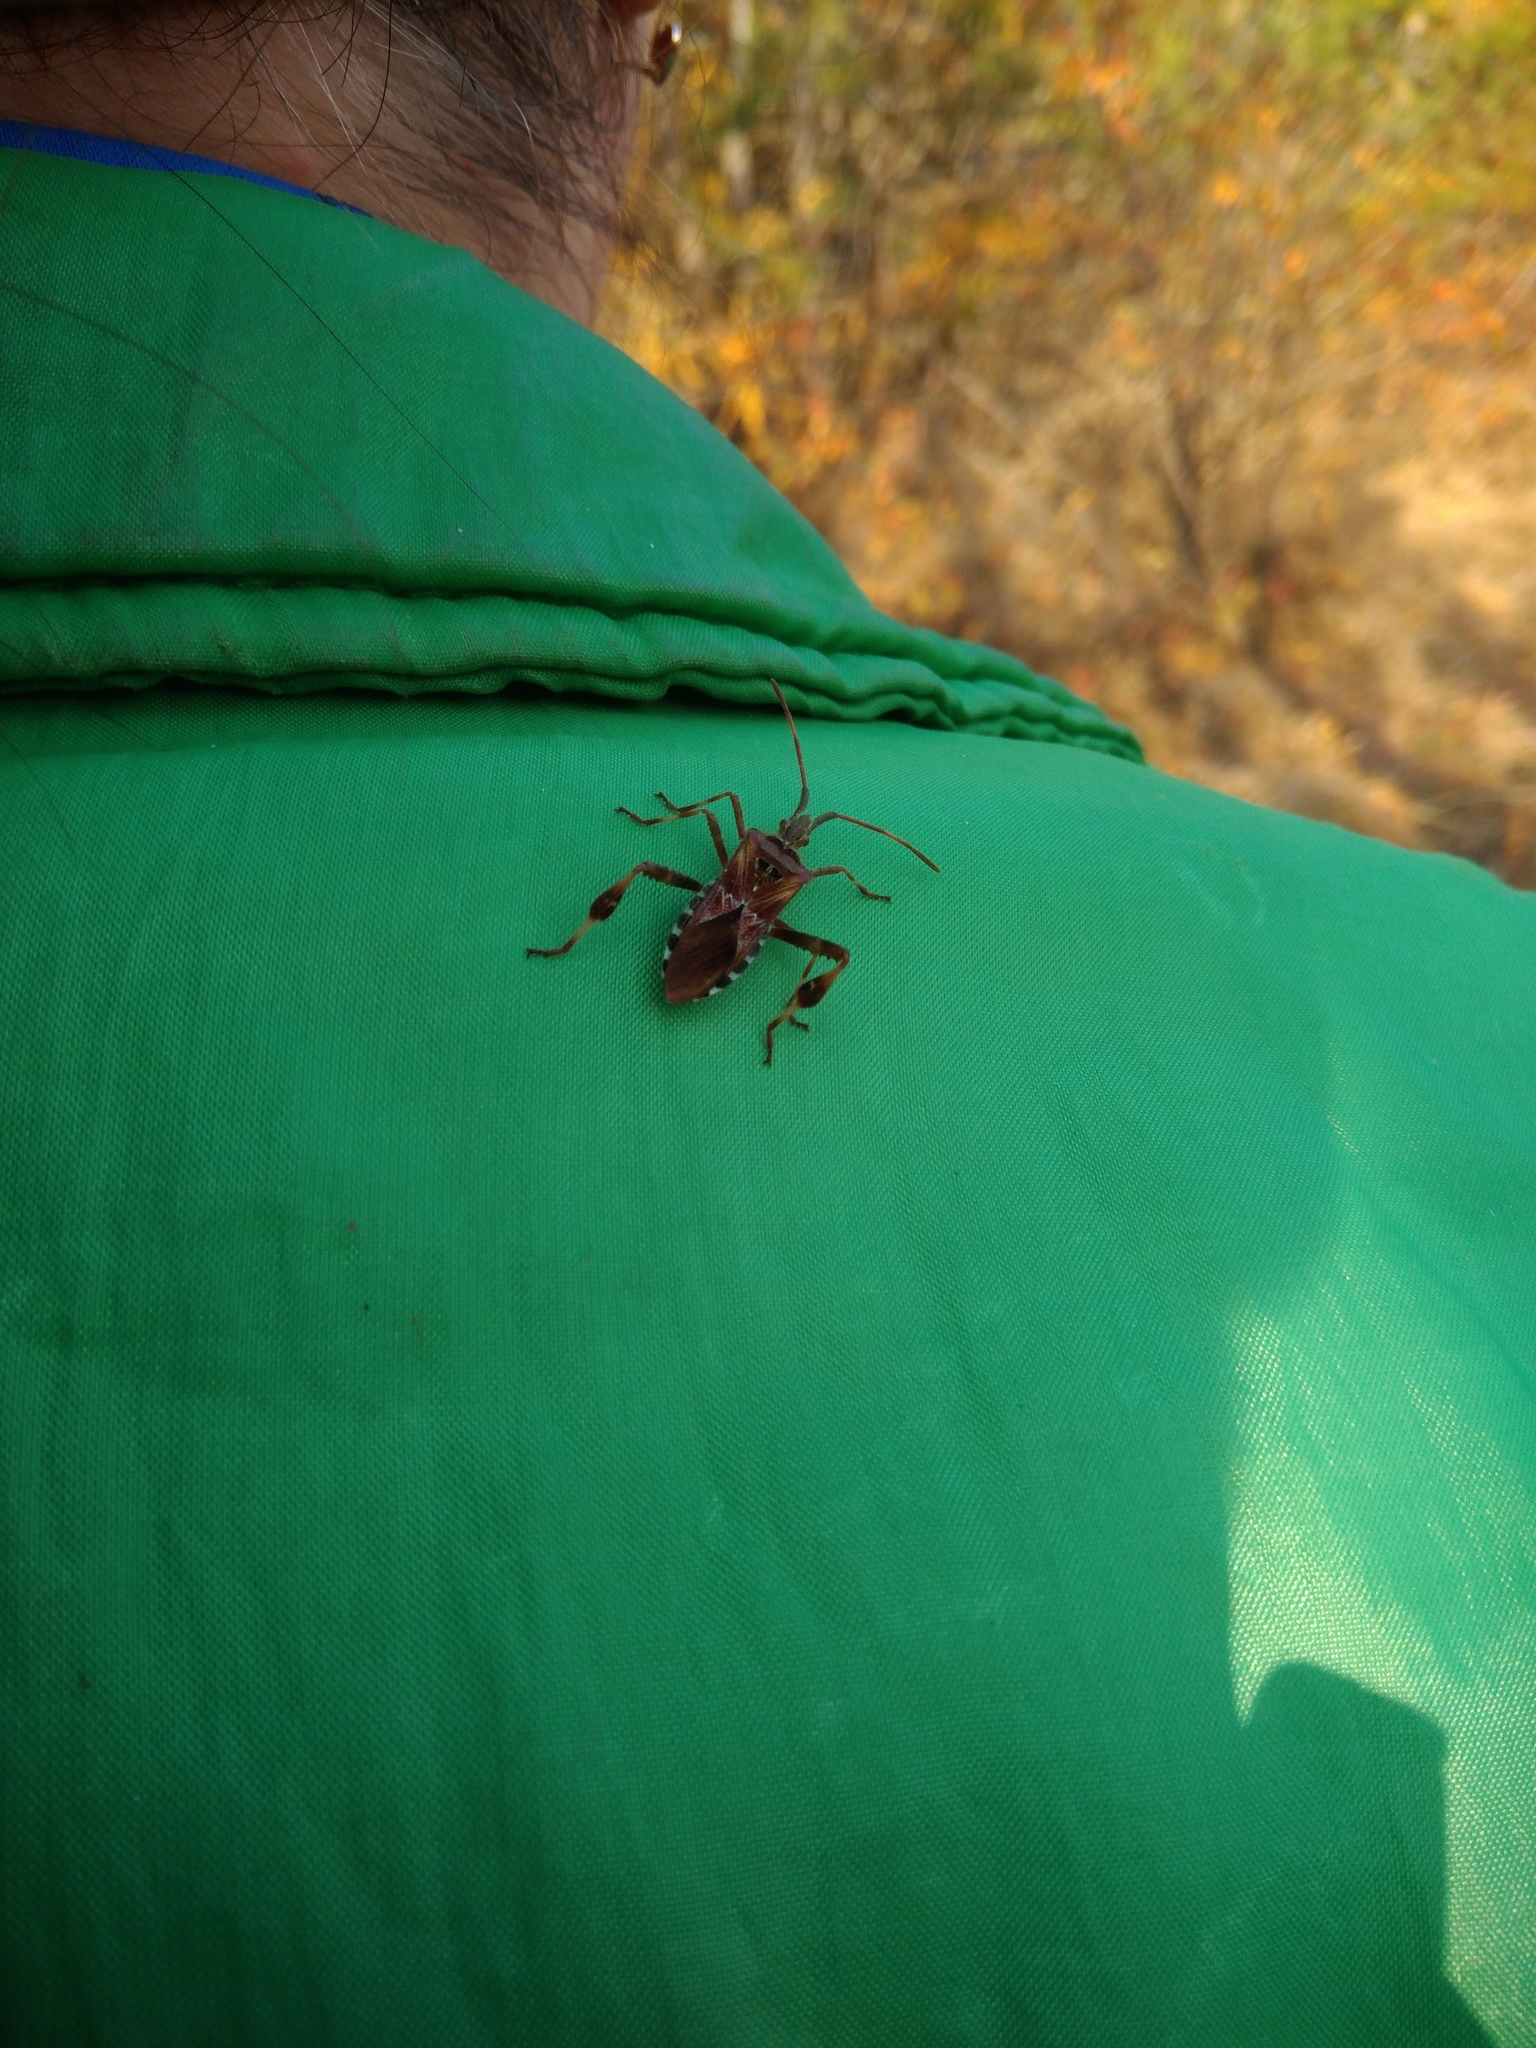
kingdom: Animalia
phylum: Arthropoda
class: Insecta
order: Hemiptera
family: Coreidae
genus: Leptoglossus
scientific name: Leptoglossus occidentalis
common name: Western conifer-seed bug
